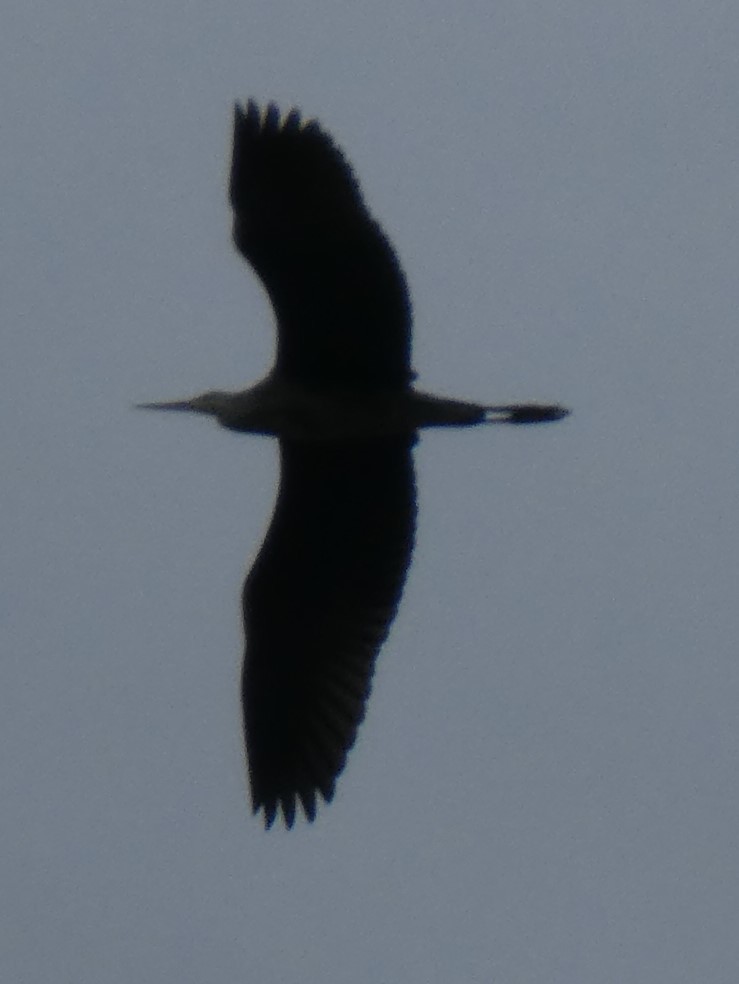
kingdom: Animalia
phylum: Chordata
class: Aves
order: Pelecaniformes
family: Ardeidae
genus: Ardea
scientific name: Ardea cinerea
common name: Grey heron
